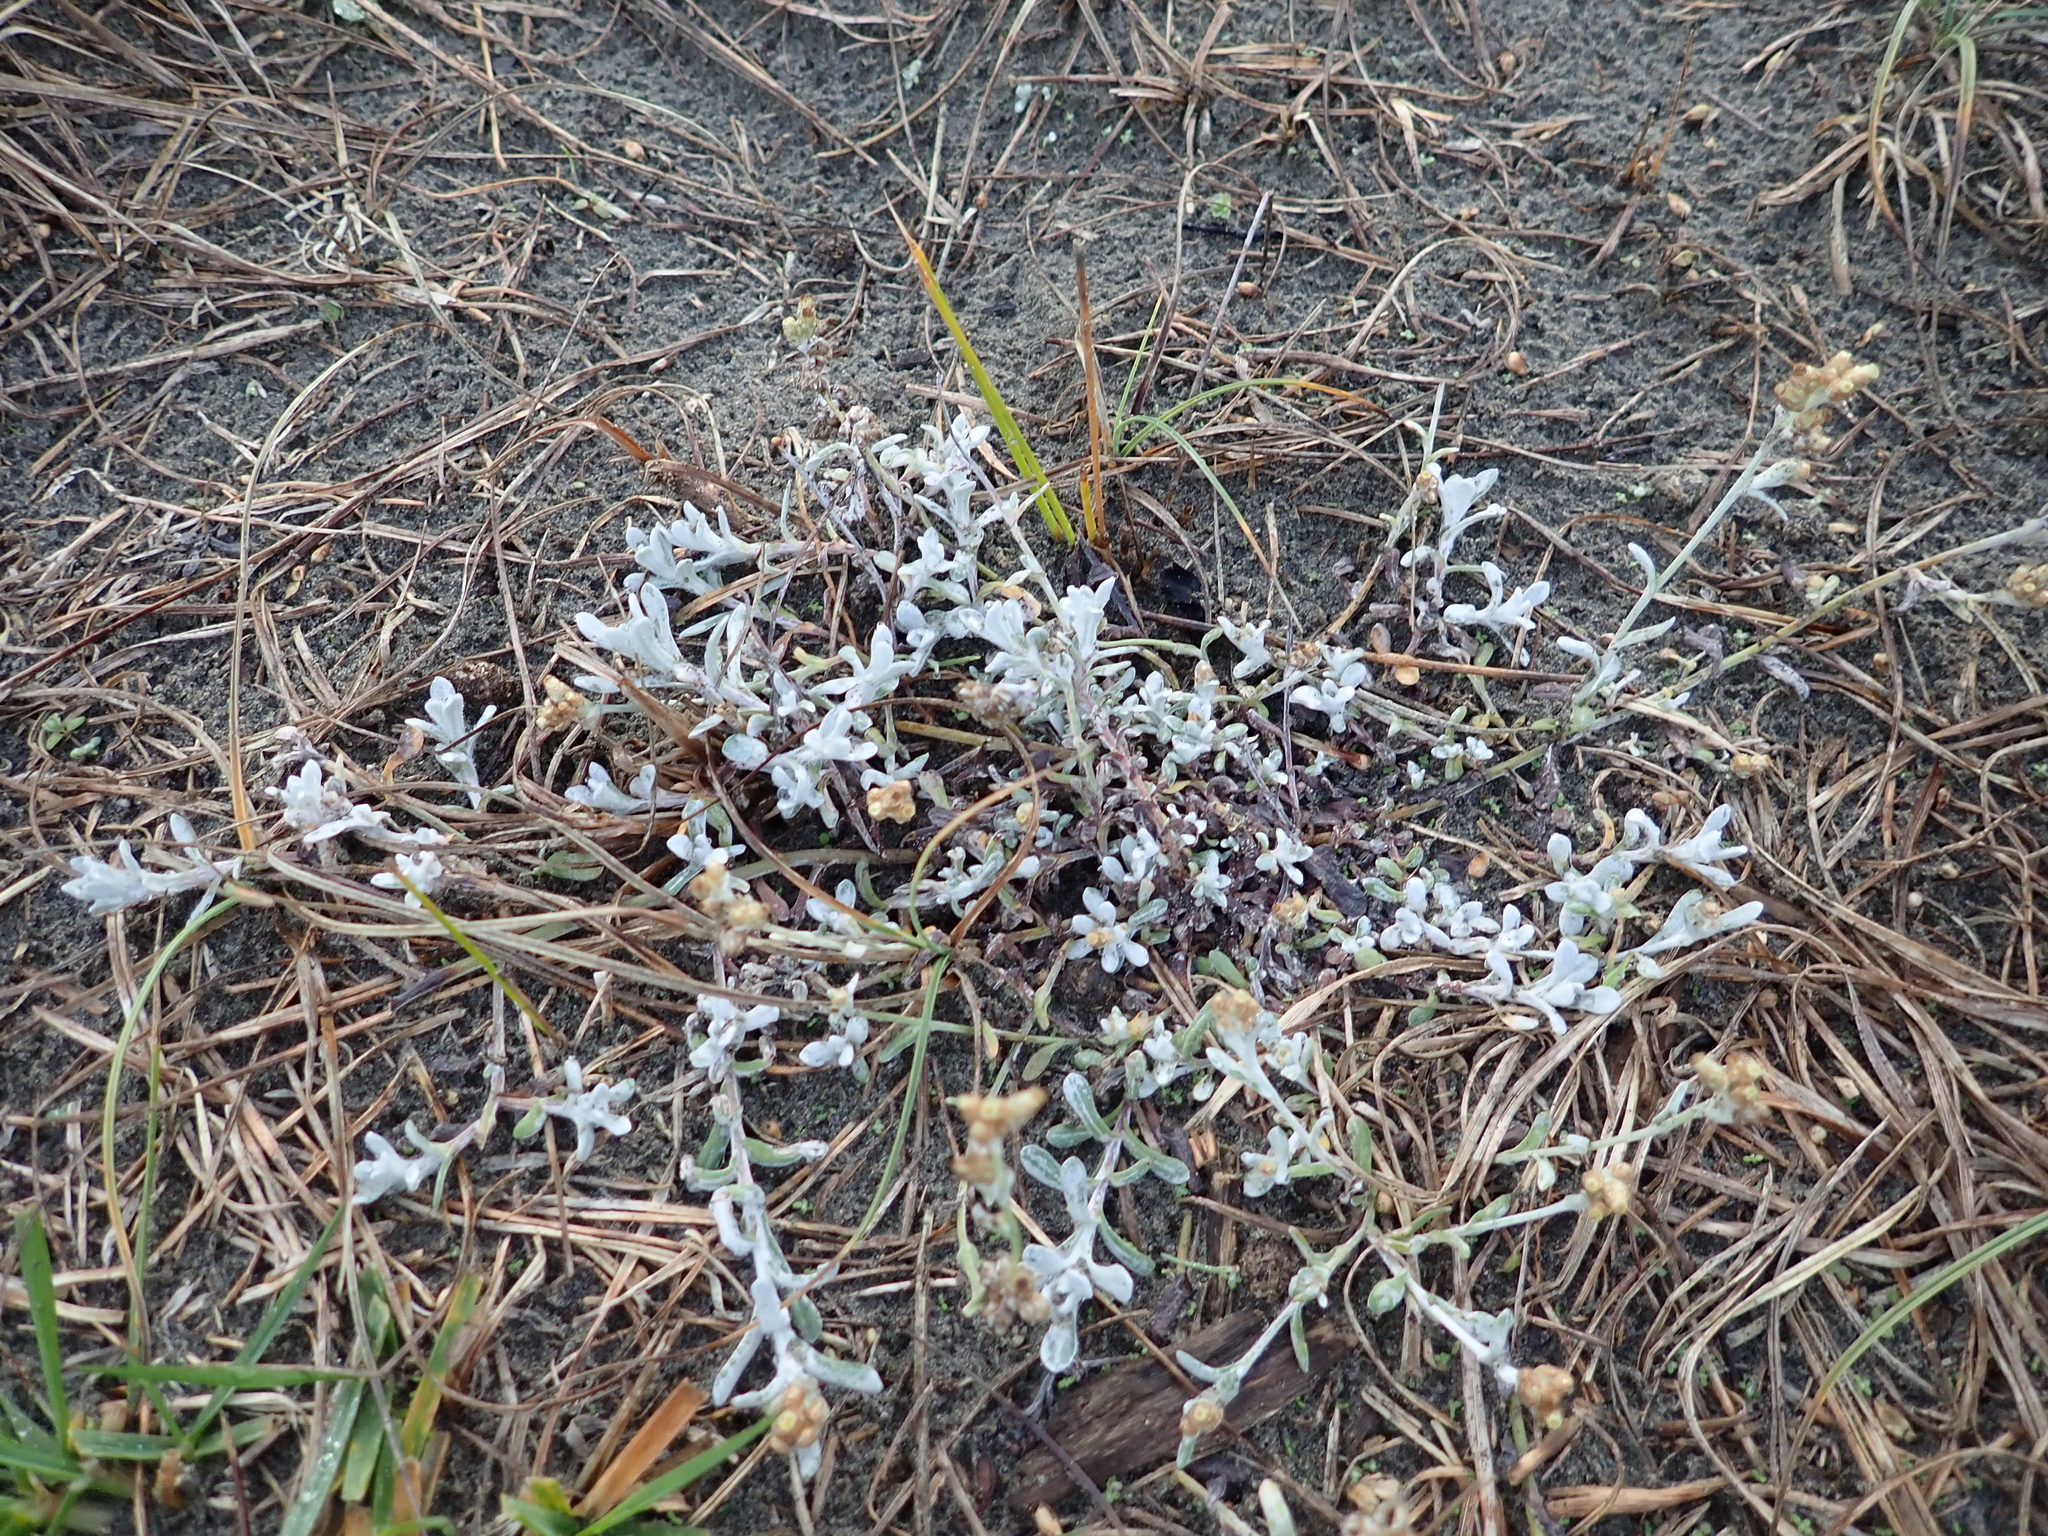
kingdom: Plantae
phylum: Tracheophyta
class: Magnoliopsida
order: Asterales
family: Asteraceae
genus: Helichrysum
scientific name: Helichrysum luteoalbum
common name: Daisy
